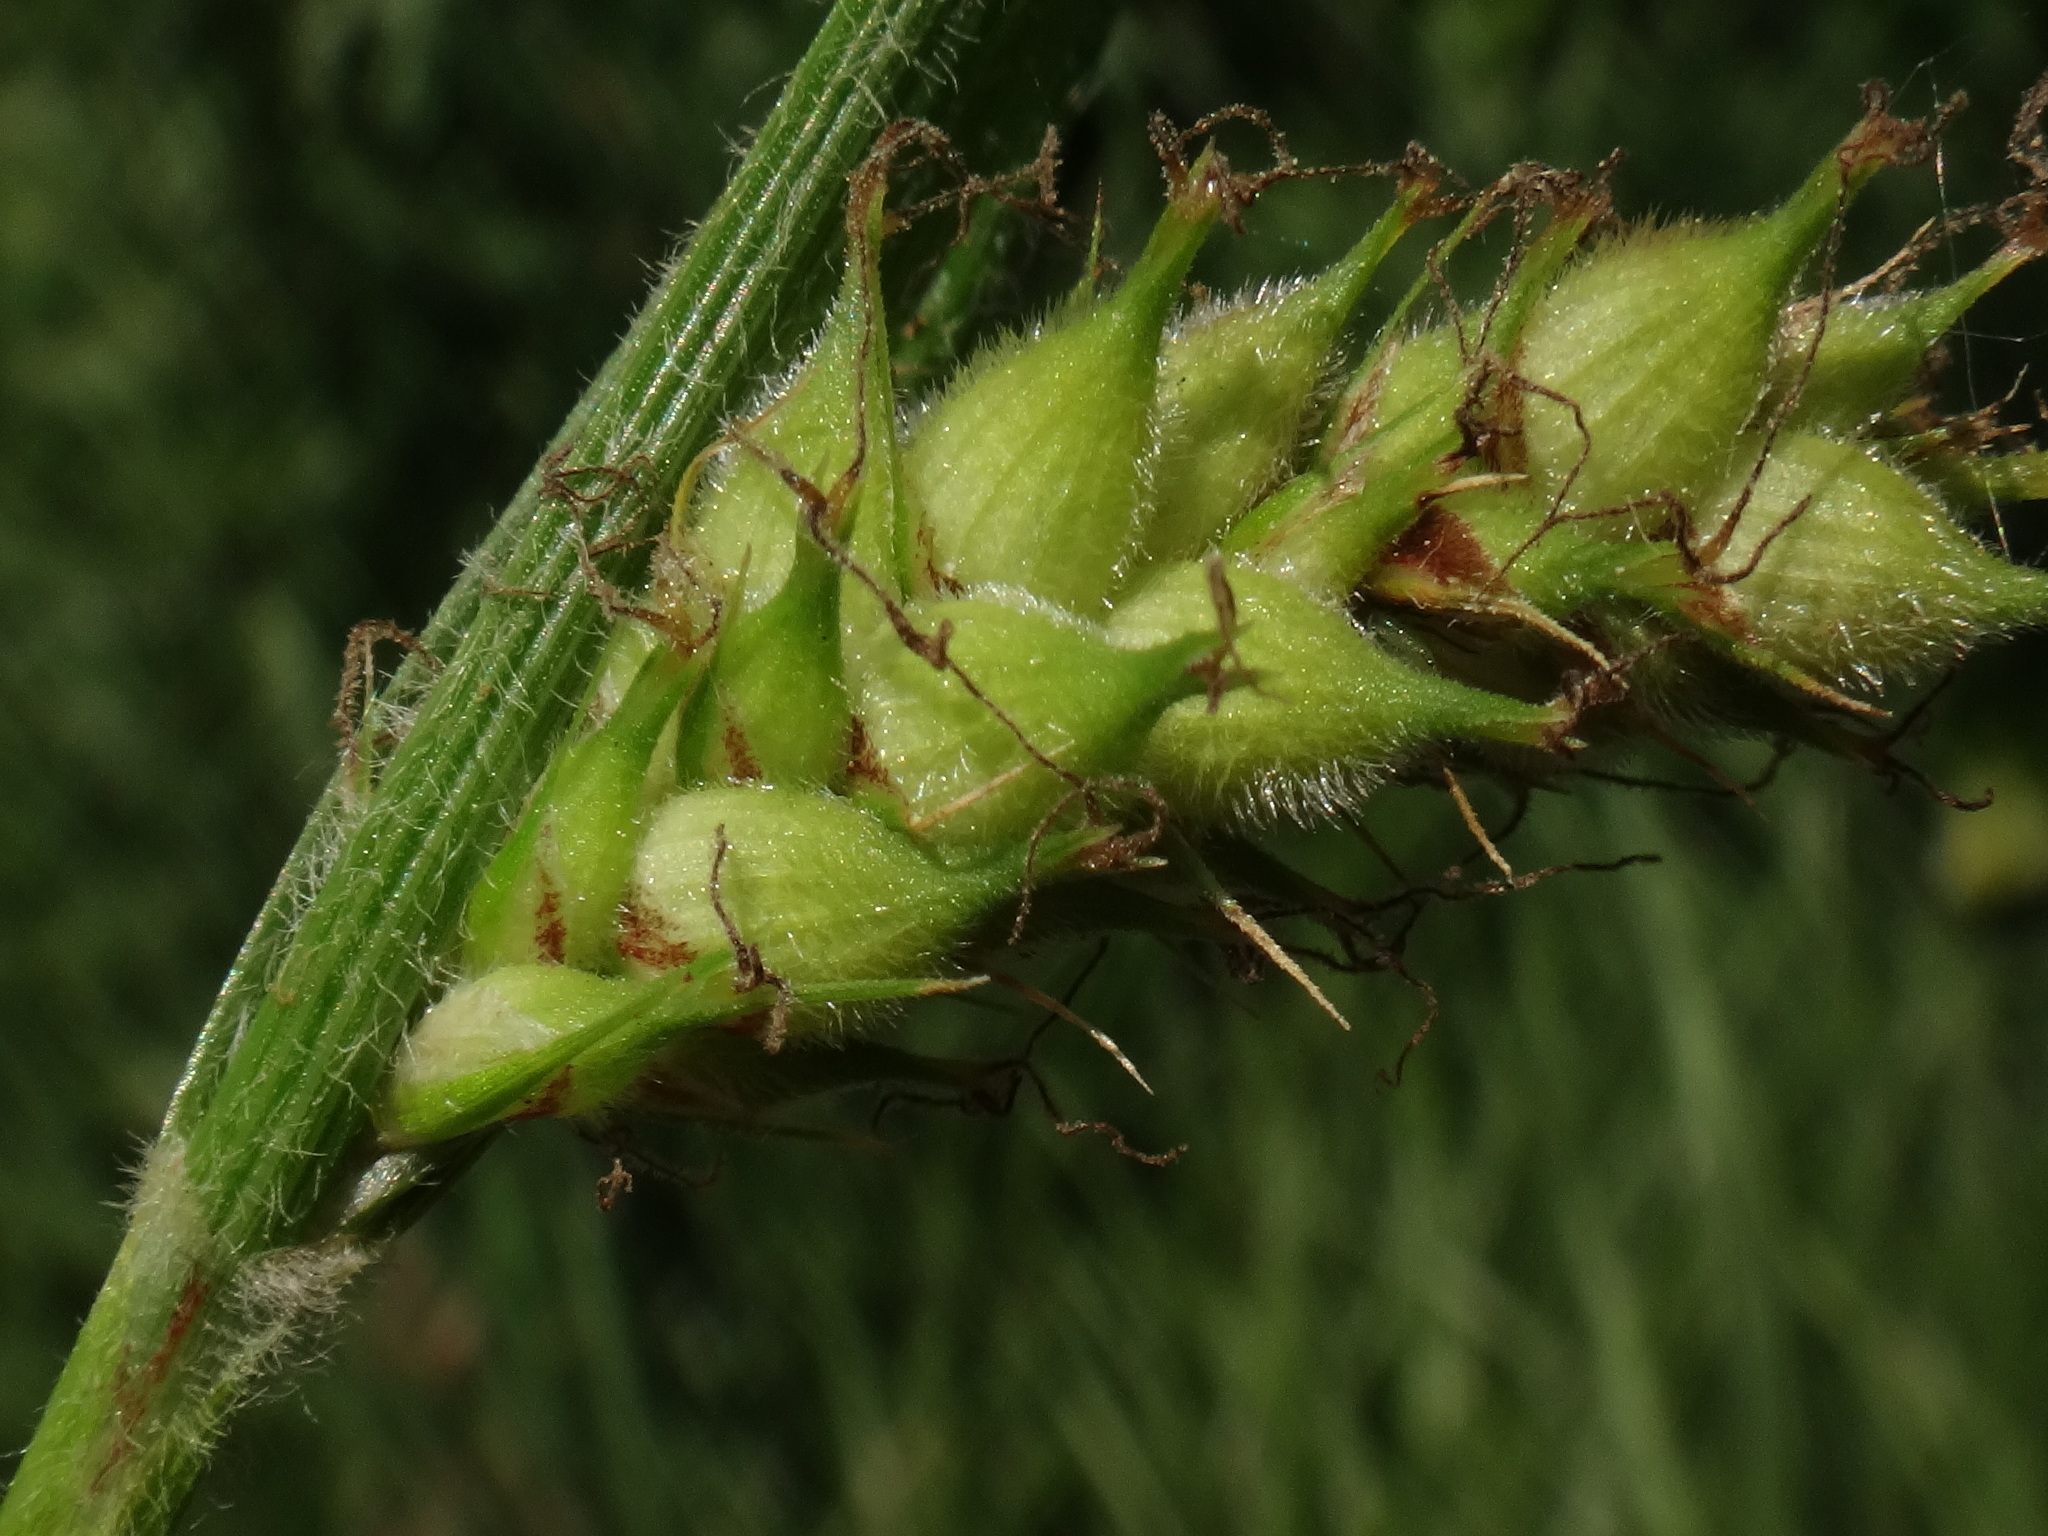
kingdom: Plantae
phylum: Tracheophyta
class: Liliopsida
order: Poales
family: Cyperaceae
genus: Carex
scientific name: Carex hirta
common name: Hairy sedge
